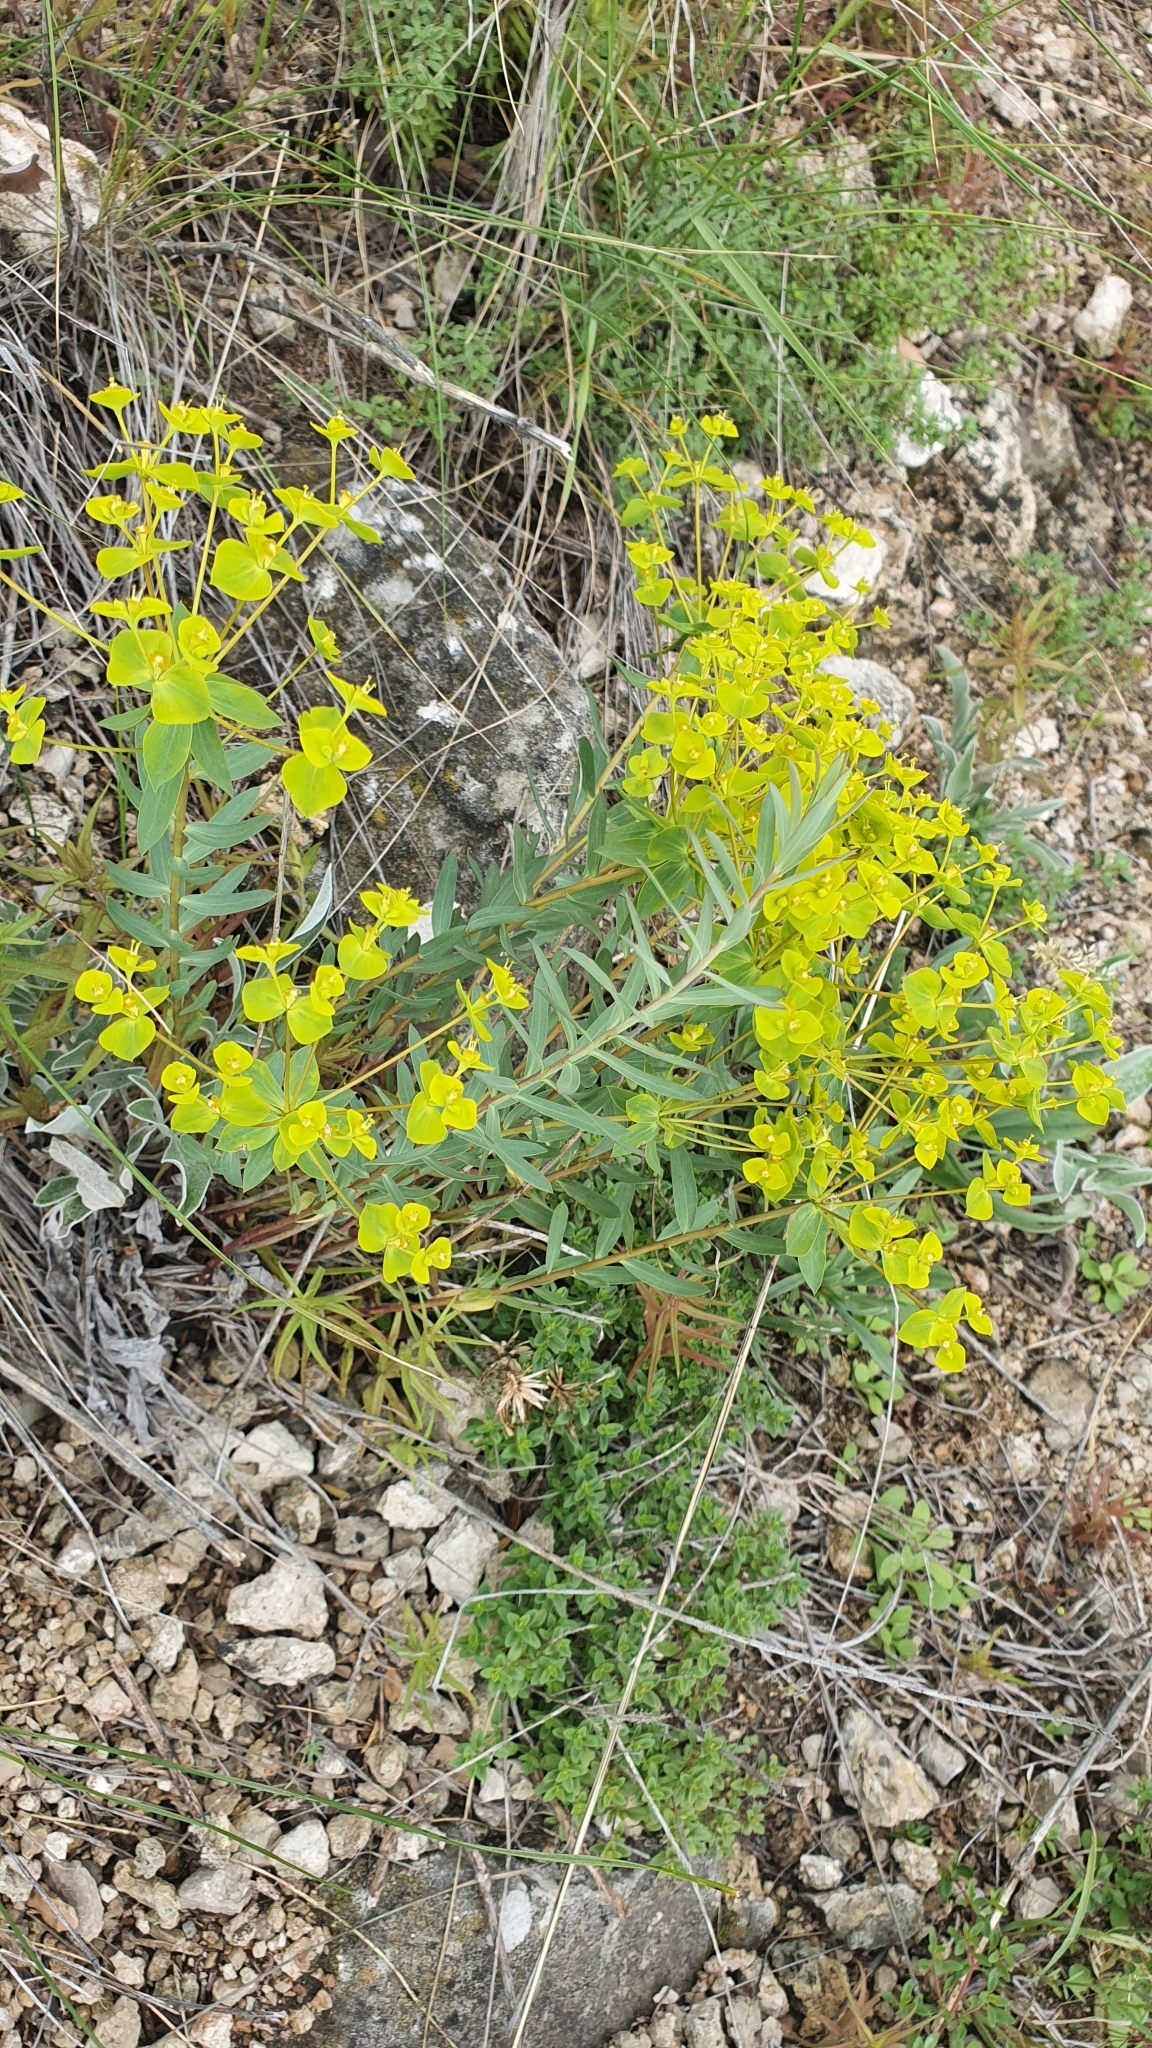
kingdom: Plantae
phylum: Tracheophyta
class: Magnoliopsida
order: Malpighiales
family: Euphorbiaceae
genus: Euphorbia
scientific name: Euphorbia seguieriana
